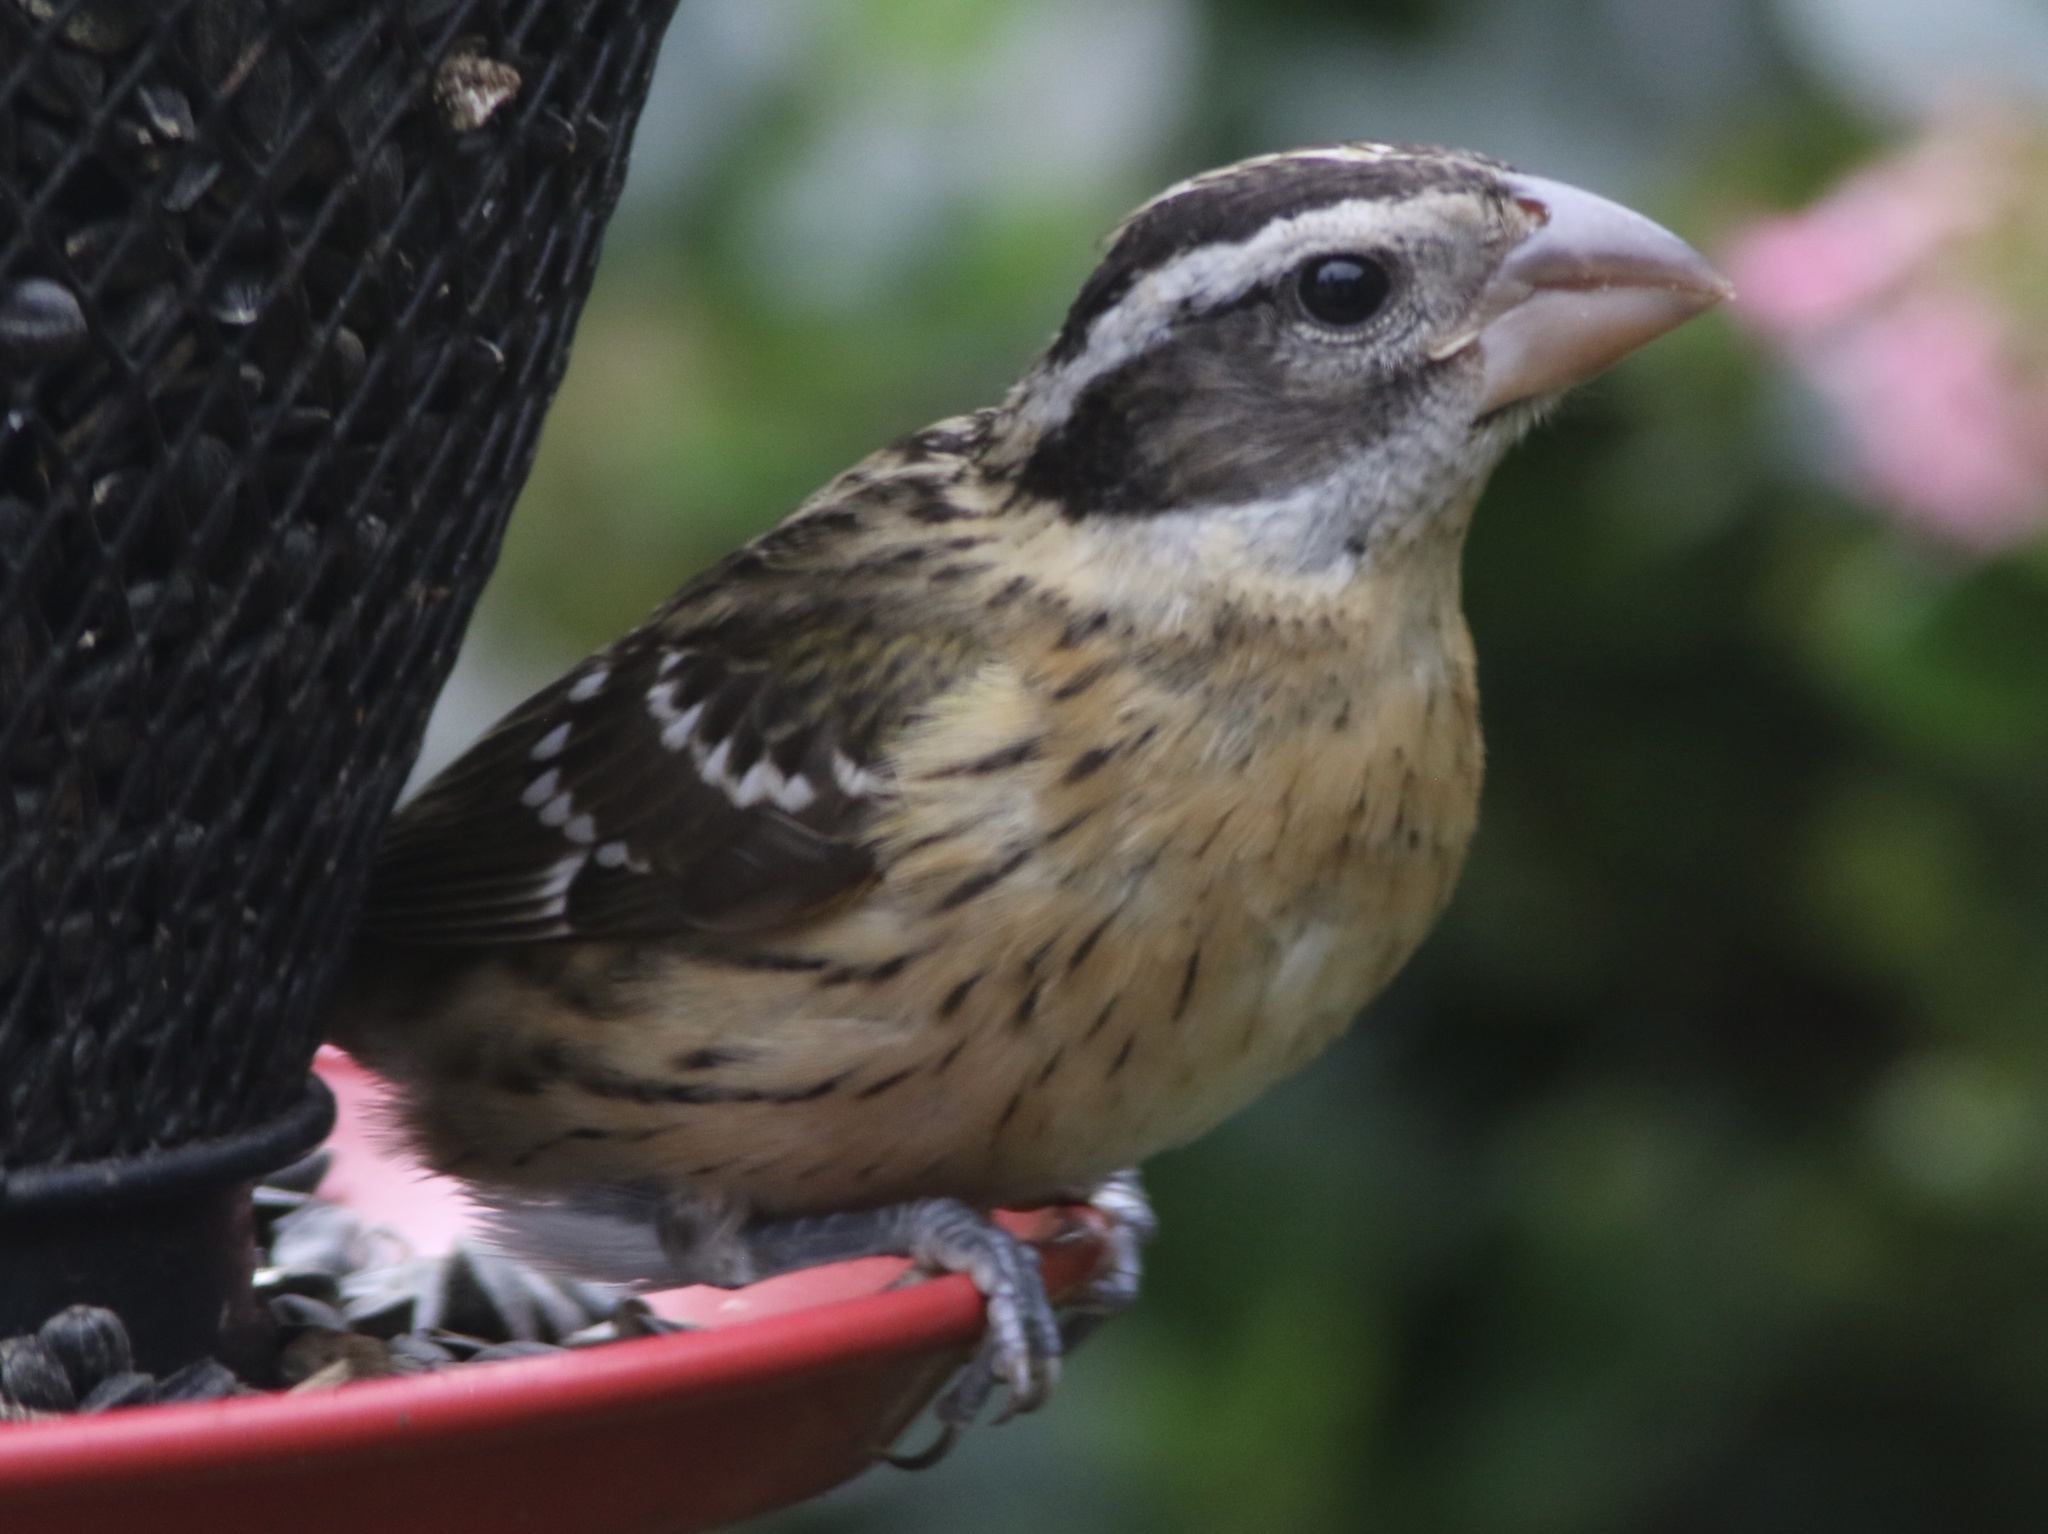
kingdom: Animalia
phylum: Chordata
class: Aves
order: Passeriformes
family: Cardinalidae
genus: Pheucticus
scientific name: Pheucticus melanocephalus
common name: Black-headed grosbeak
